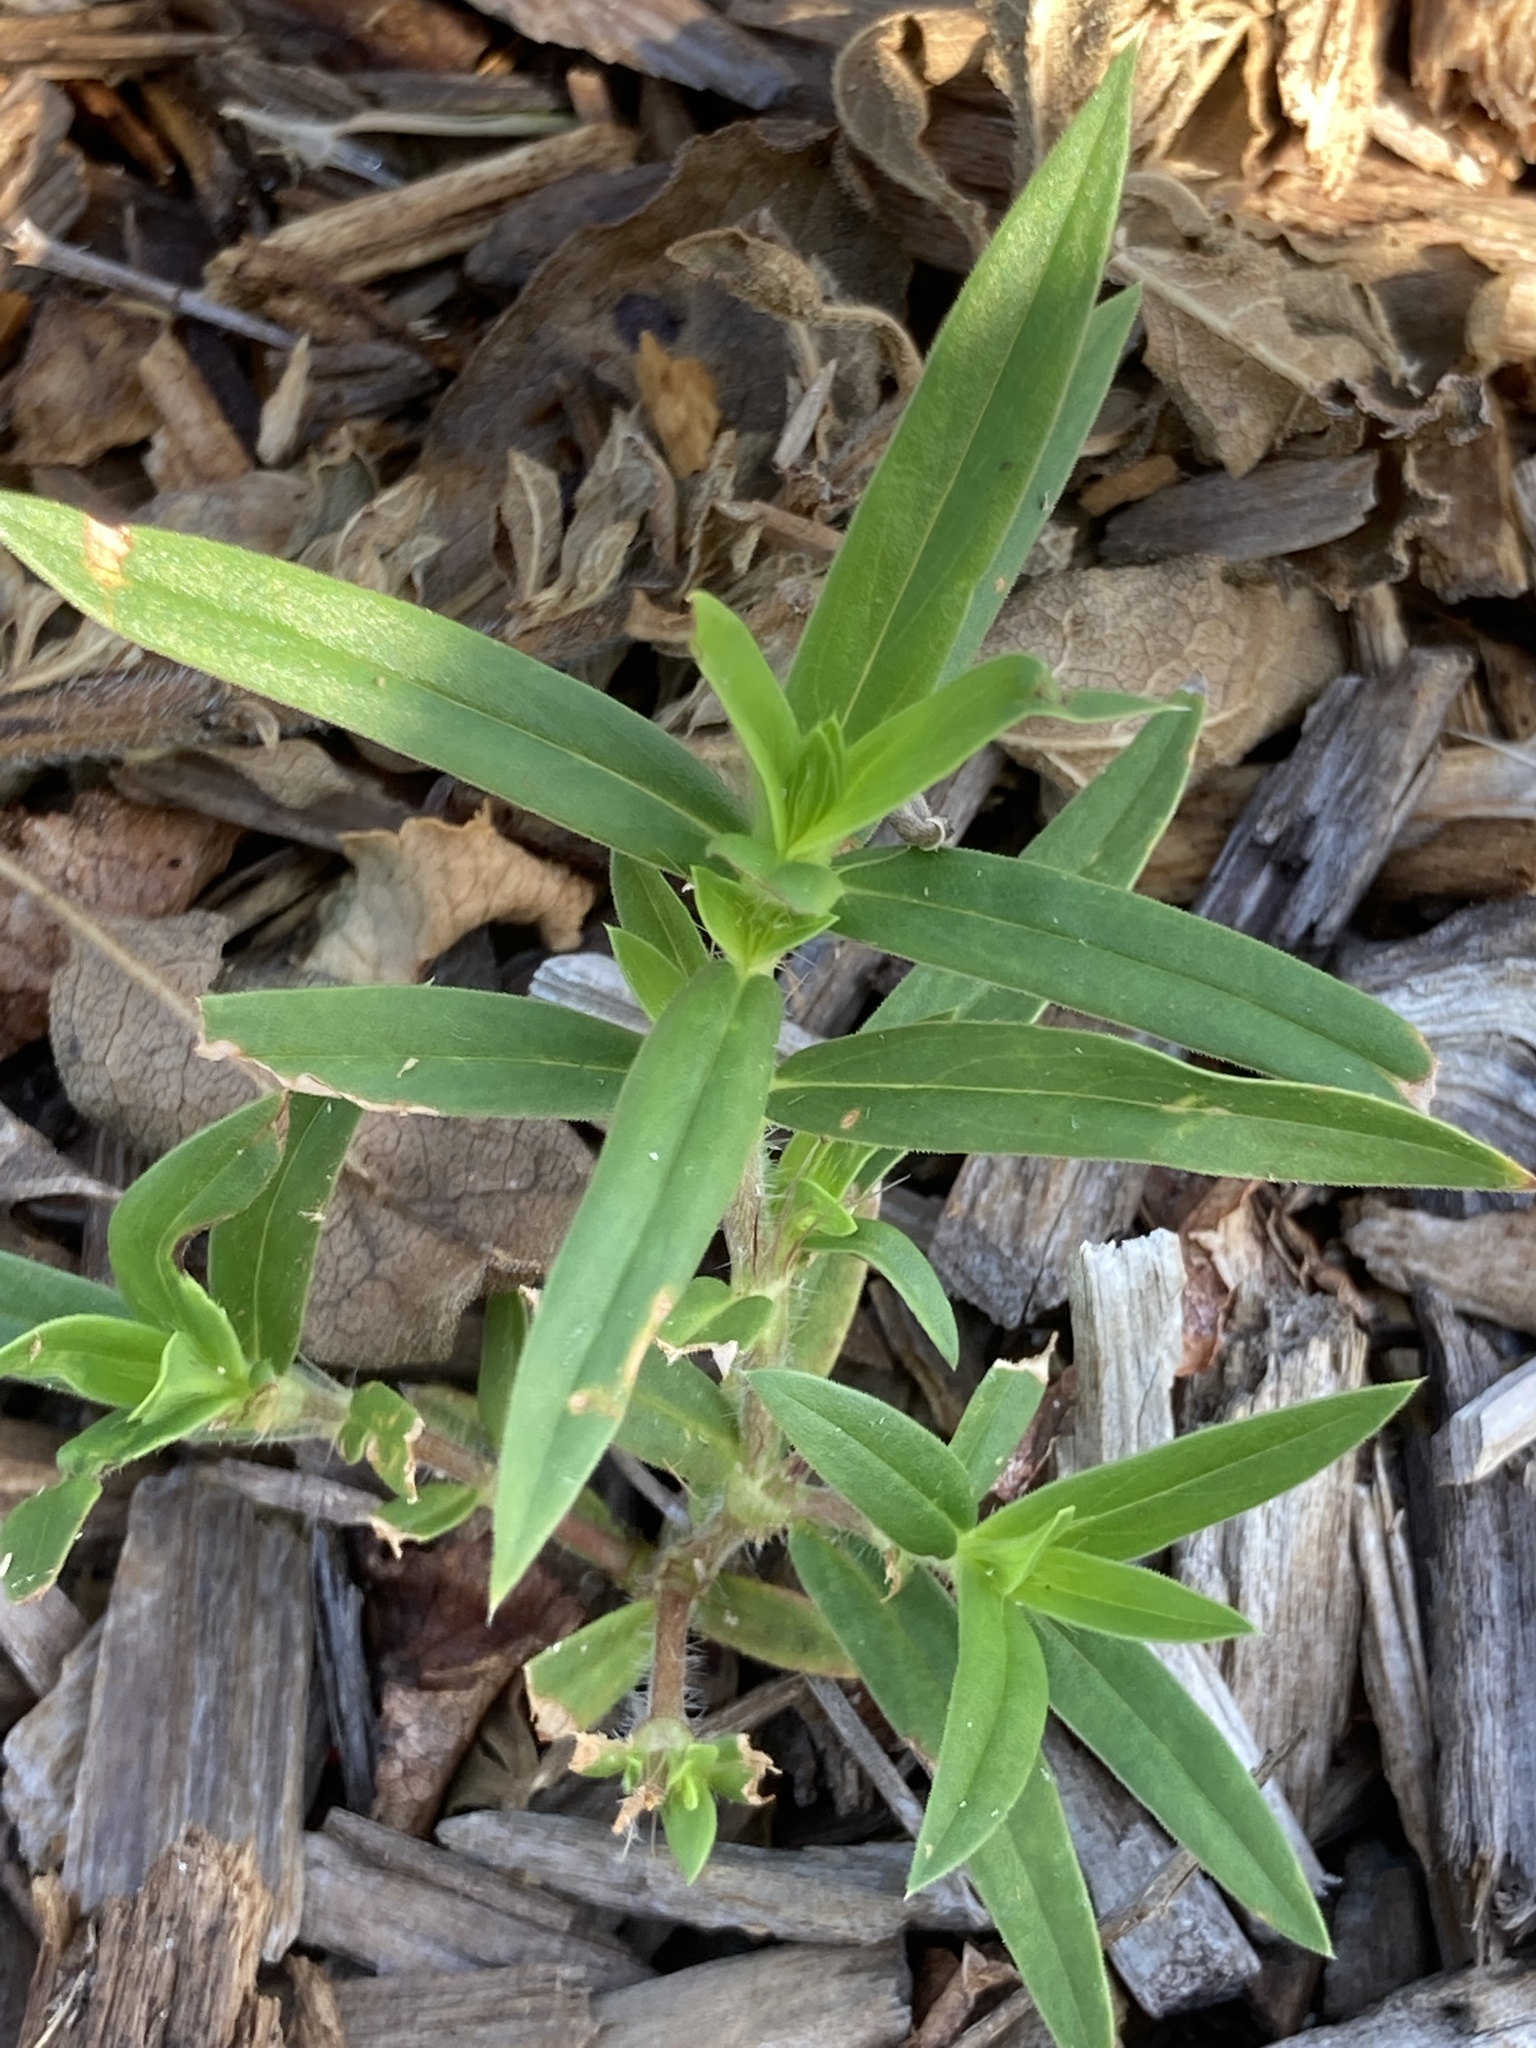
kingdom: Plantae
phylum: Tracheophyta
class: Magnoliopsida
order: Gentianales
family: Rubiaceae
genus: Hexasepalum
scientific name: Hexasepalum teres
